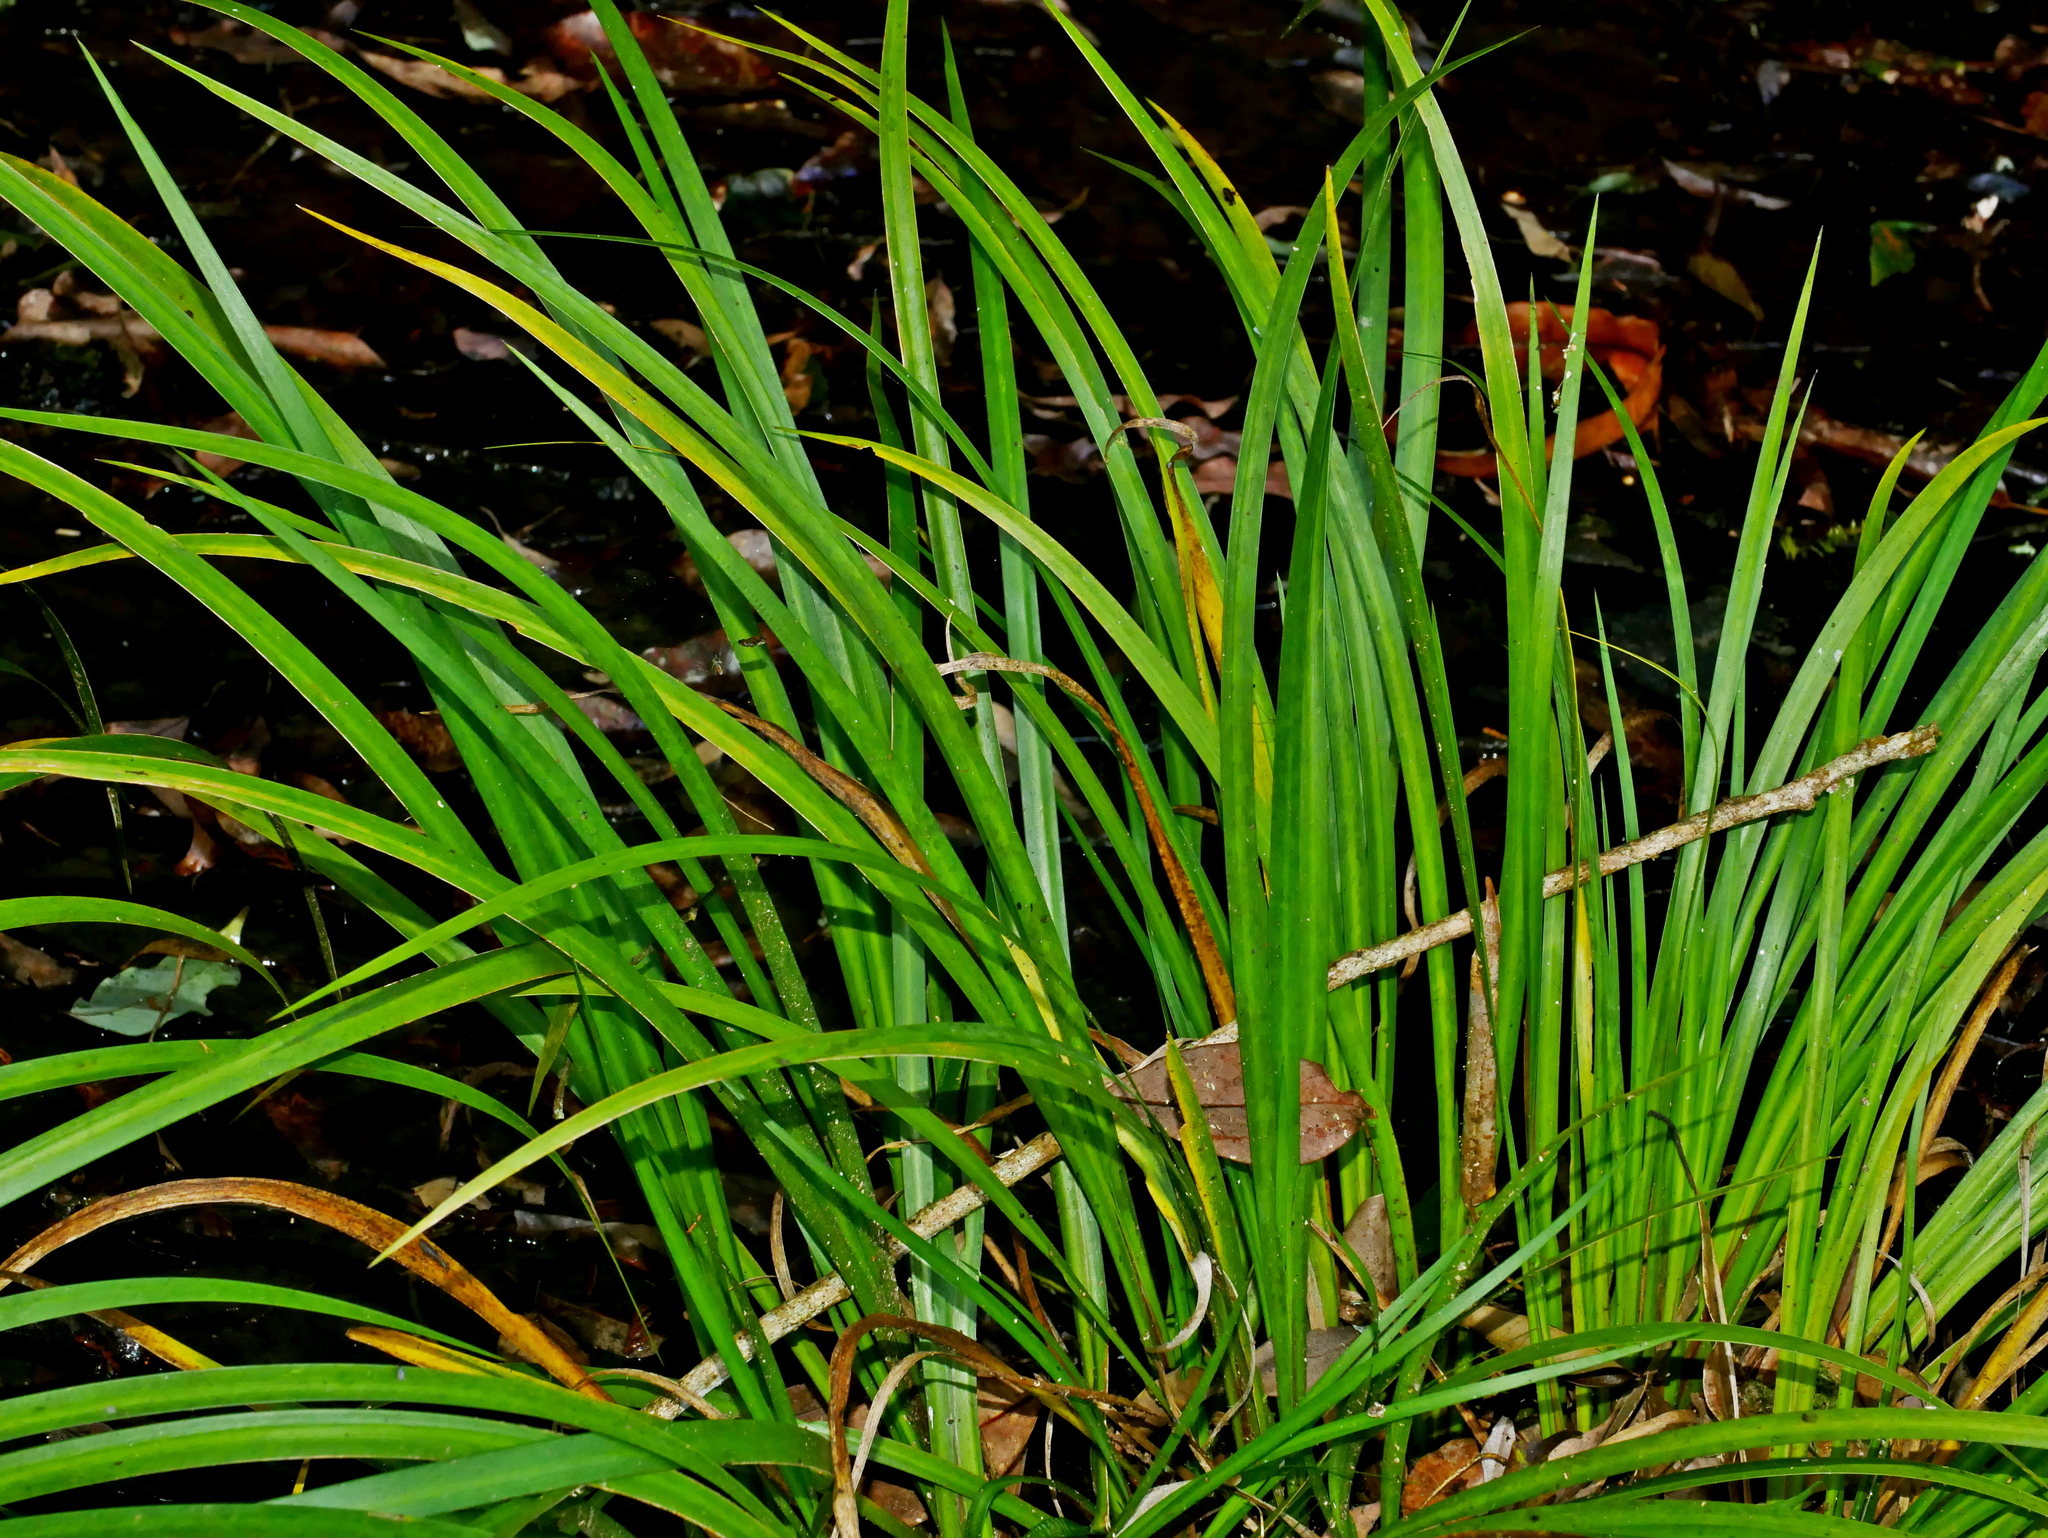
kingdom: Plantae
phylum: Tracheophyta
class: Liliopsida
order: Acorales
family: Acoraceae
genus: Acorus
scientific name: Acorus gramineus
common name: Slender sweet-flag
